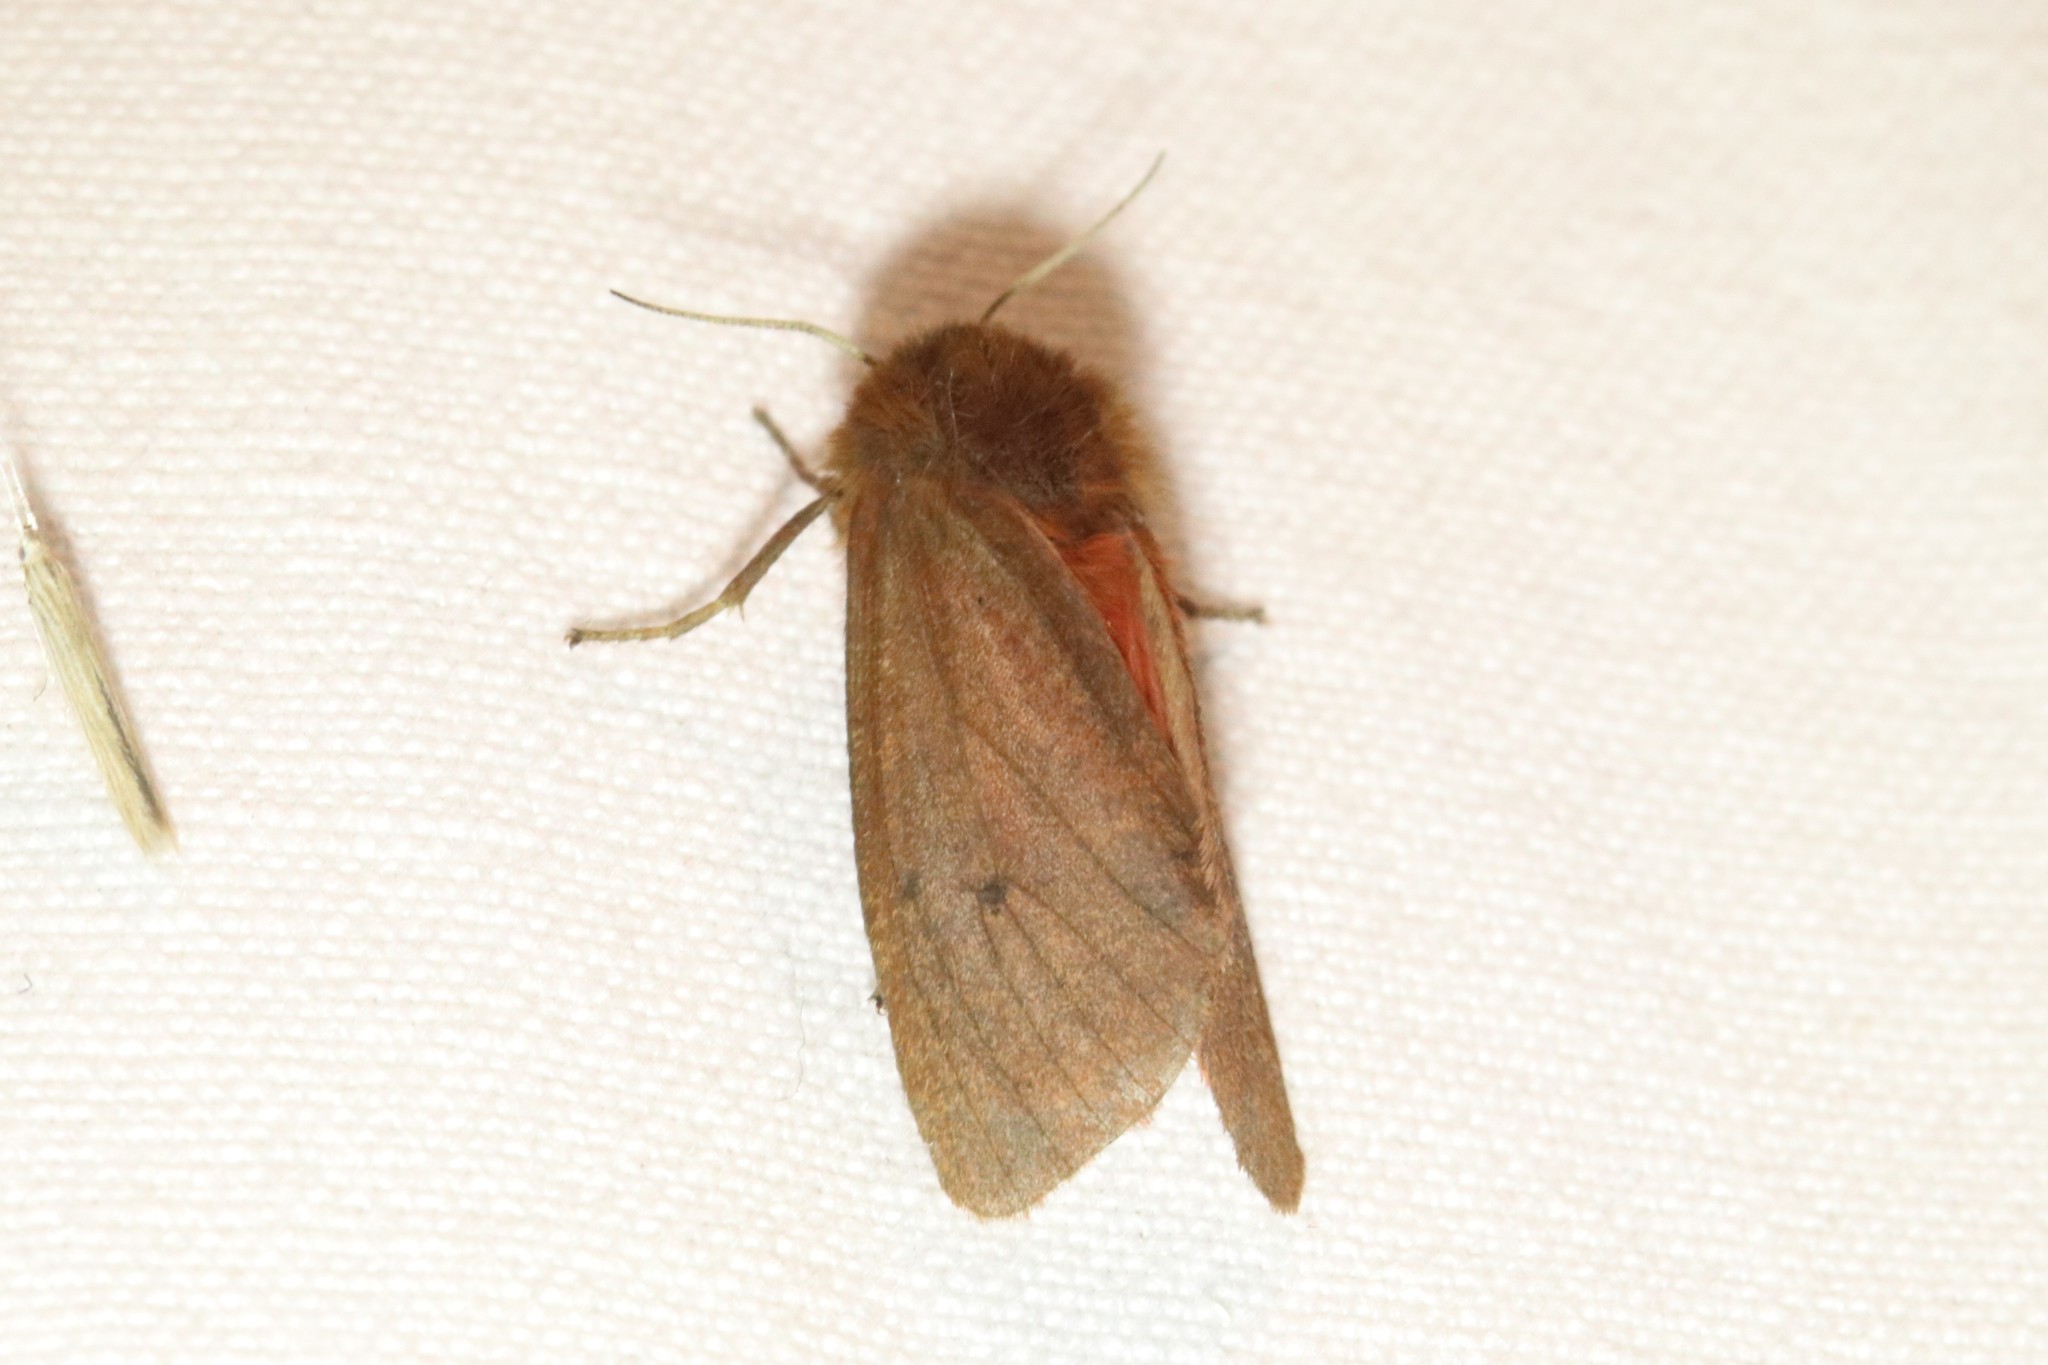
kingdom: Animalia
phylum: Arthropoda
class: Insecta
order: Lepidoptera
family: Erebidae
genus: Phragmatobia
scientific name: Phragmatobia fuliginosa
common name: Ruby tiger
